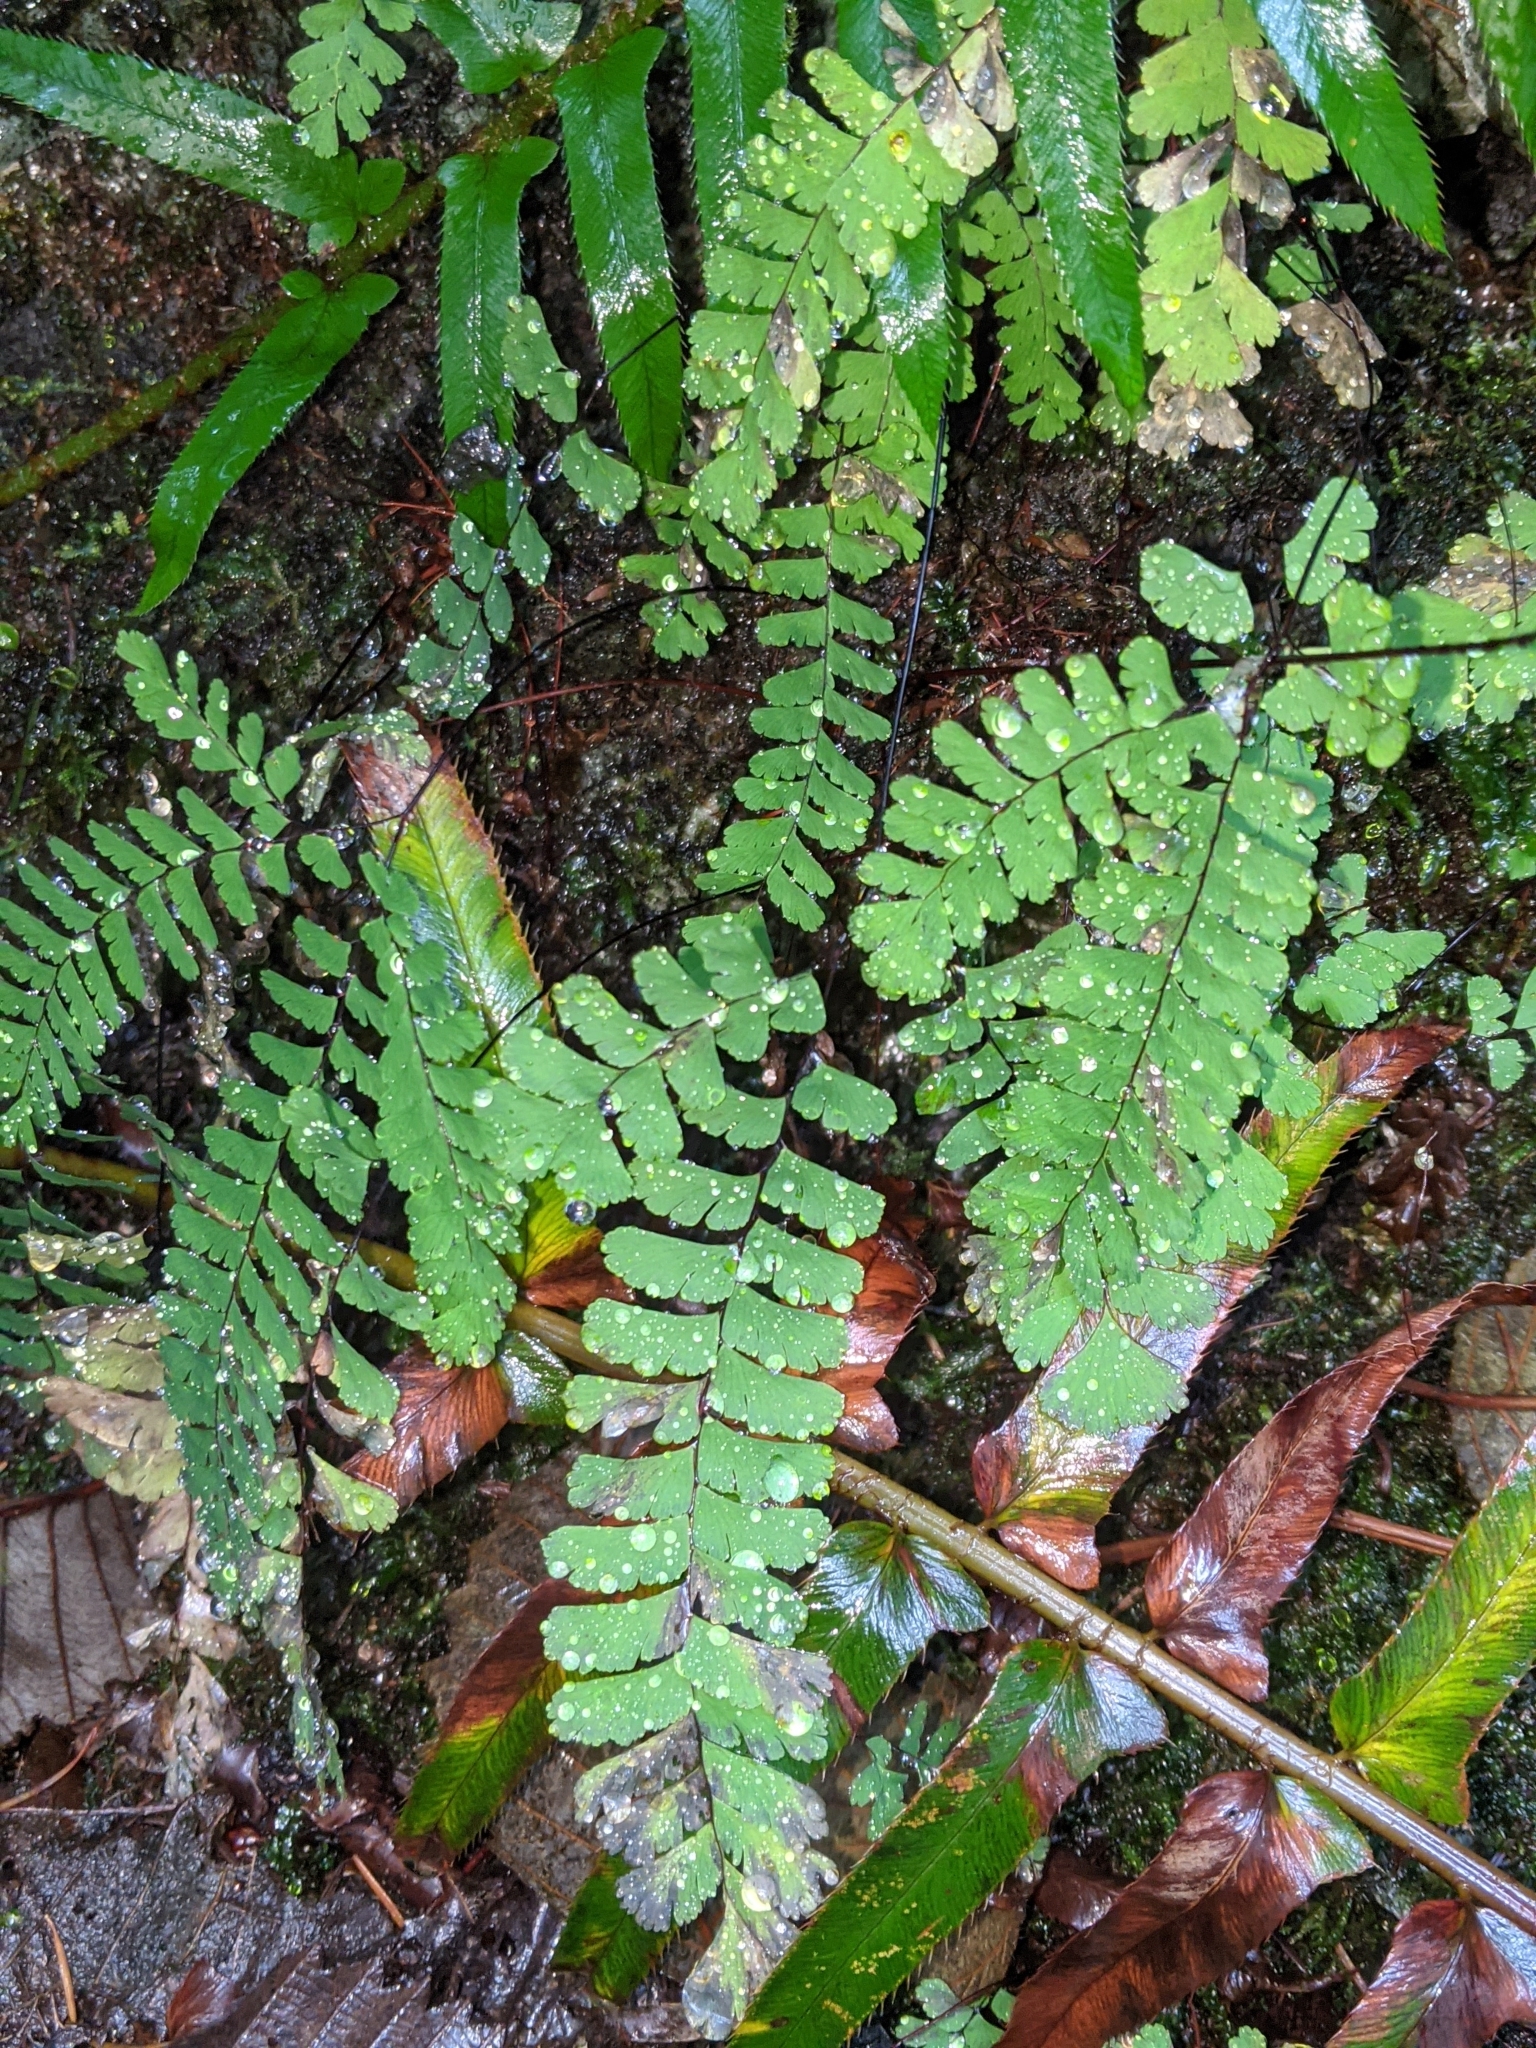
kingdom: Plantae
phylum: Tracheophyta
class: Polypodiopsida
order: Polypodiales
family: Pteridaceae
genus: Adiantum
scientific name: Adiantum aleuticum
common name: Aleutian maidenhair fern
